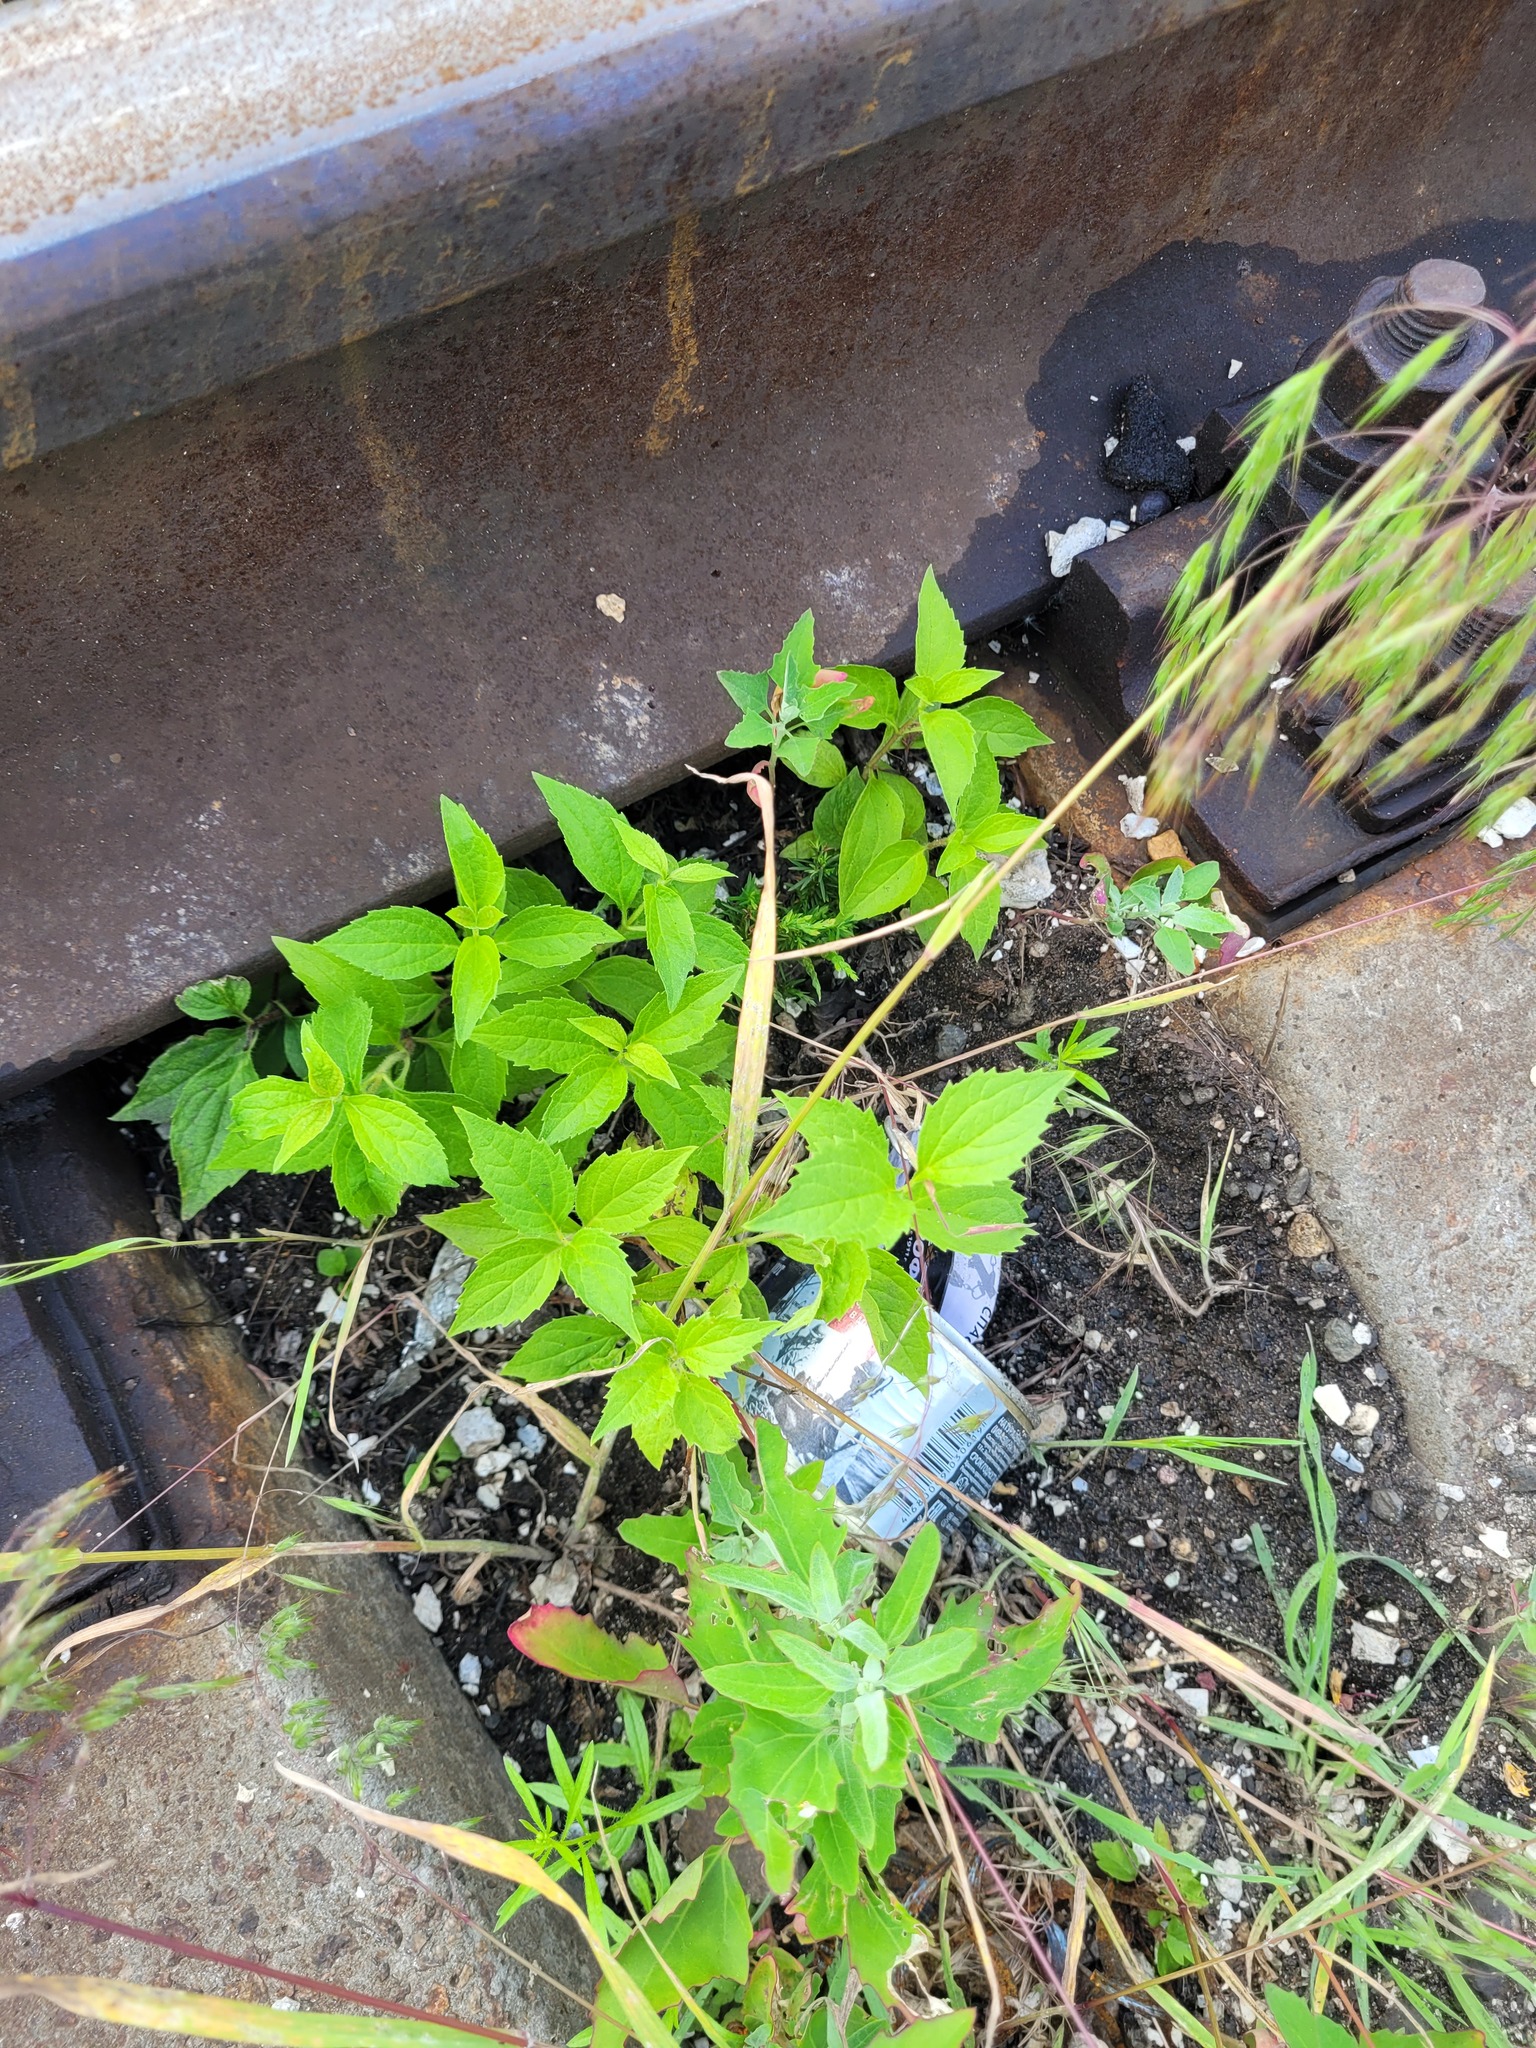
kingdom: Plantae
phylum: Tracheophyta
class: Magnoliopsida
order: Cornales
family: Hydrangeaceae
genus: Philadelphus
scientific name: Philadelphus coronarius
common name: Mock orange
